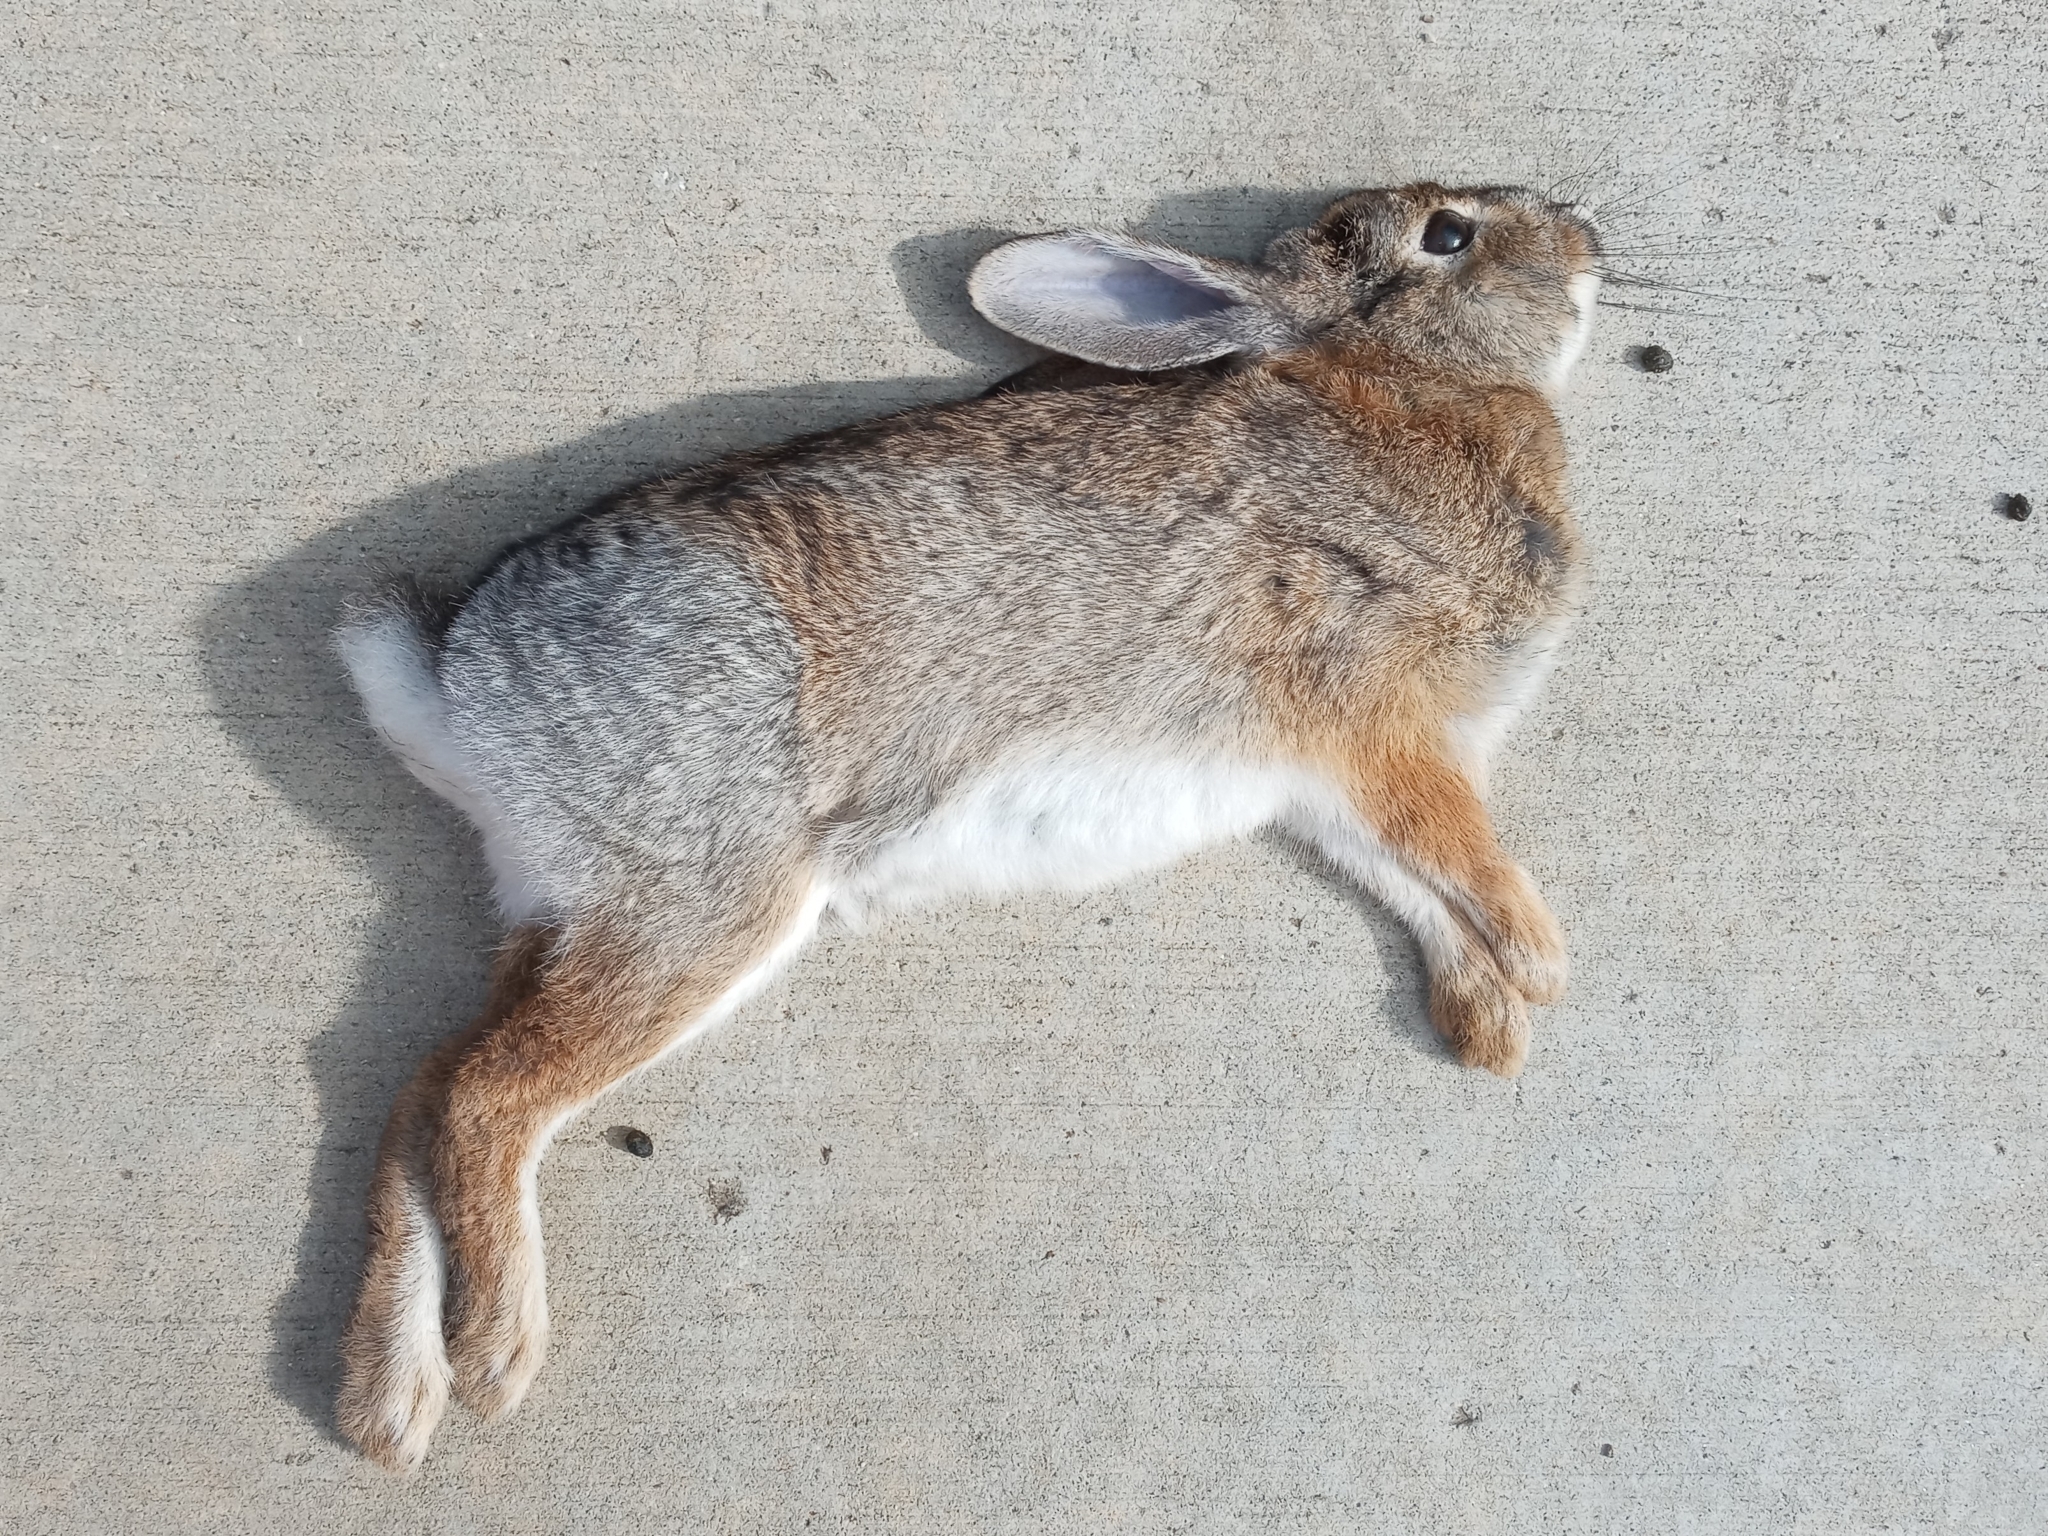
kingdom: Animalia
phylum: Chordata
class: Mammalia
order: Lagomorpha
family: Leporidae
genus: Sylvilagus
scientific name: Sylvilagus audubonii
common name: Desert cottontail
